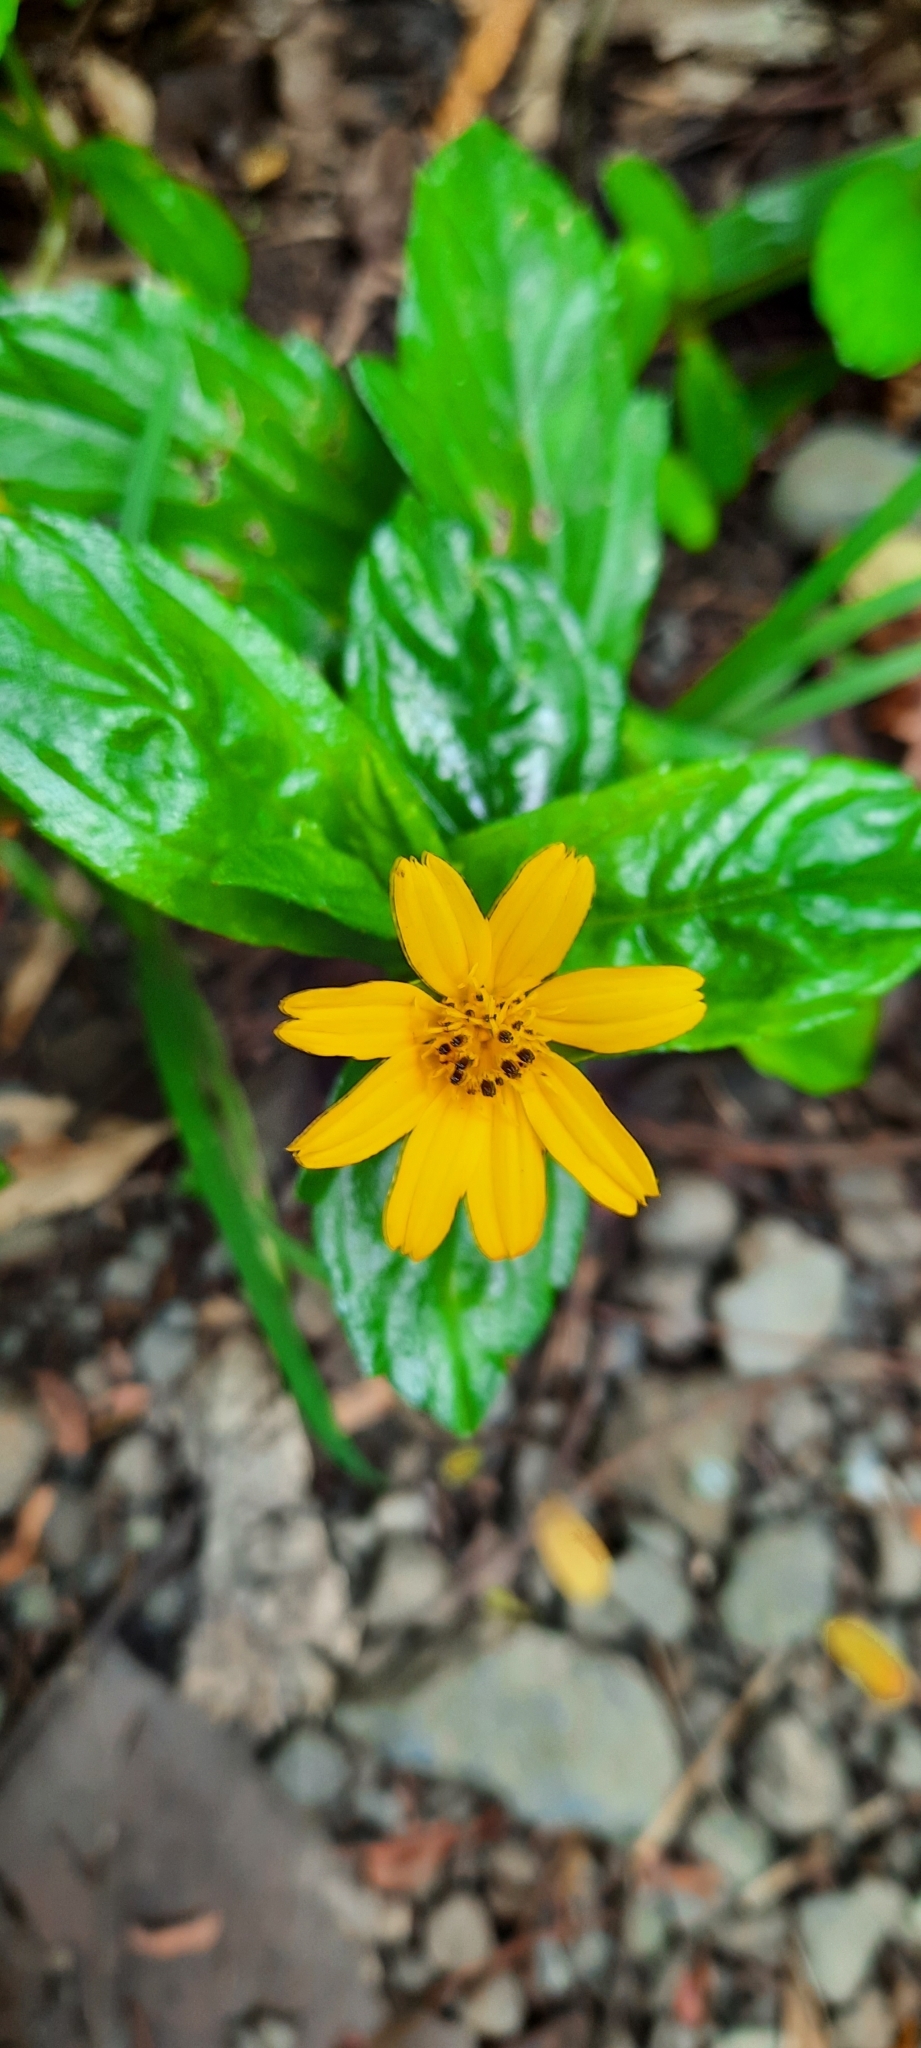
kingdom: Plantae
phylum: Tracheophyta
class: Magnoliopsida
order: Asterales
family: Asteraceae
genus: Sphagneticola
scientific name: Sphagneticola trilobata
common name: Bay biscayne creeping-oxeye
